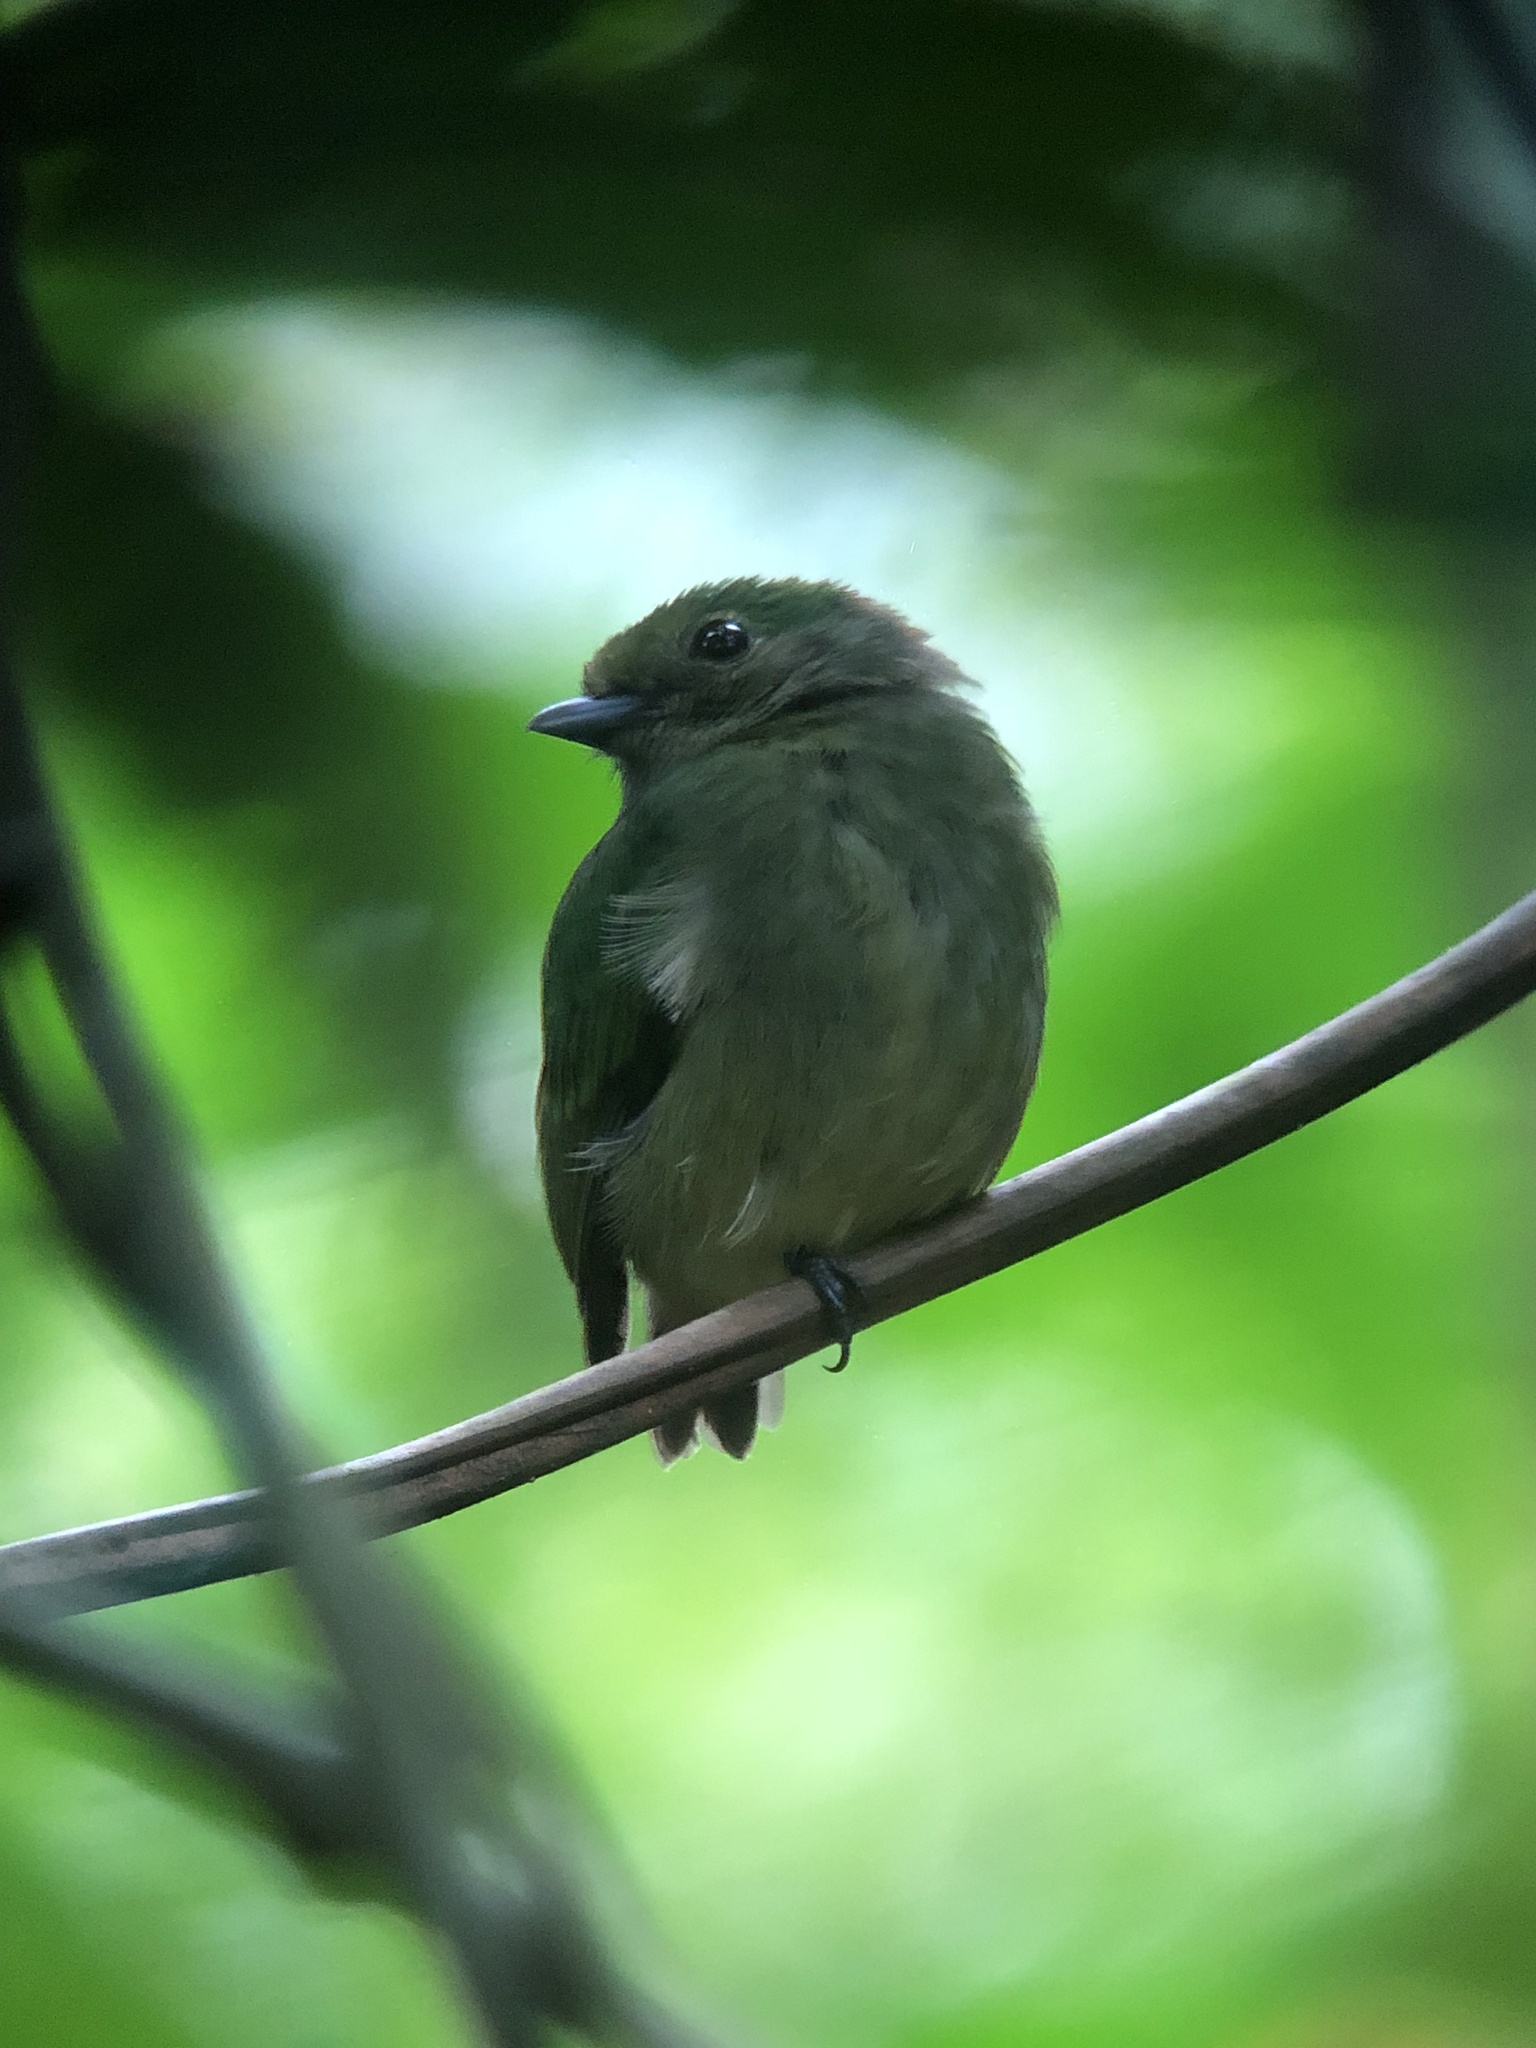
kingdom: Animalia
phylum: Chordata
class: Aves
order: Passeriformes
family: Pipridae
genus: Lepidothrix
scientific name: Lepidothrix coronata
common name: Blue-crowned manakin
